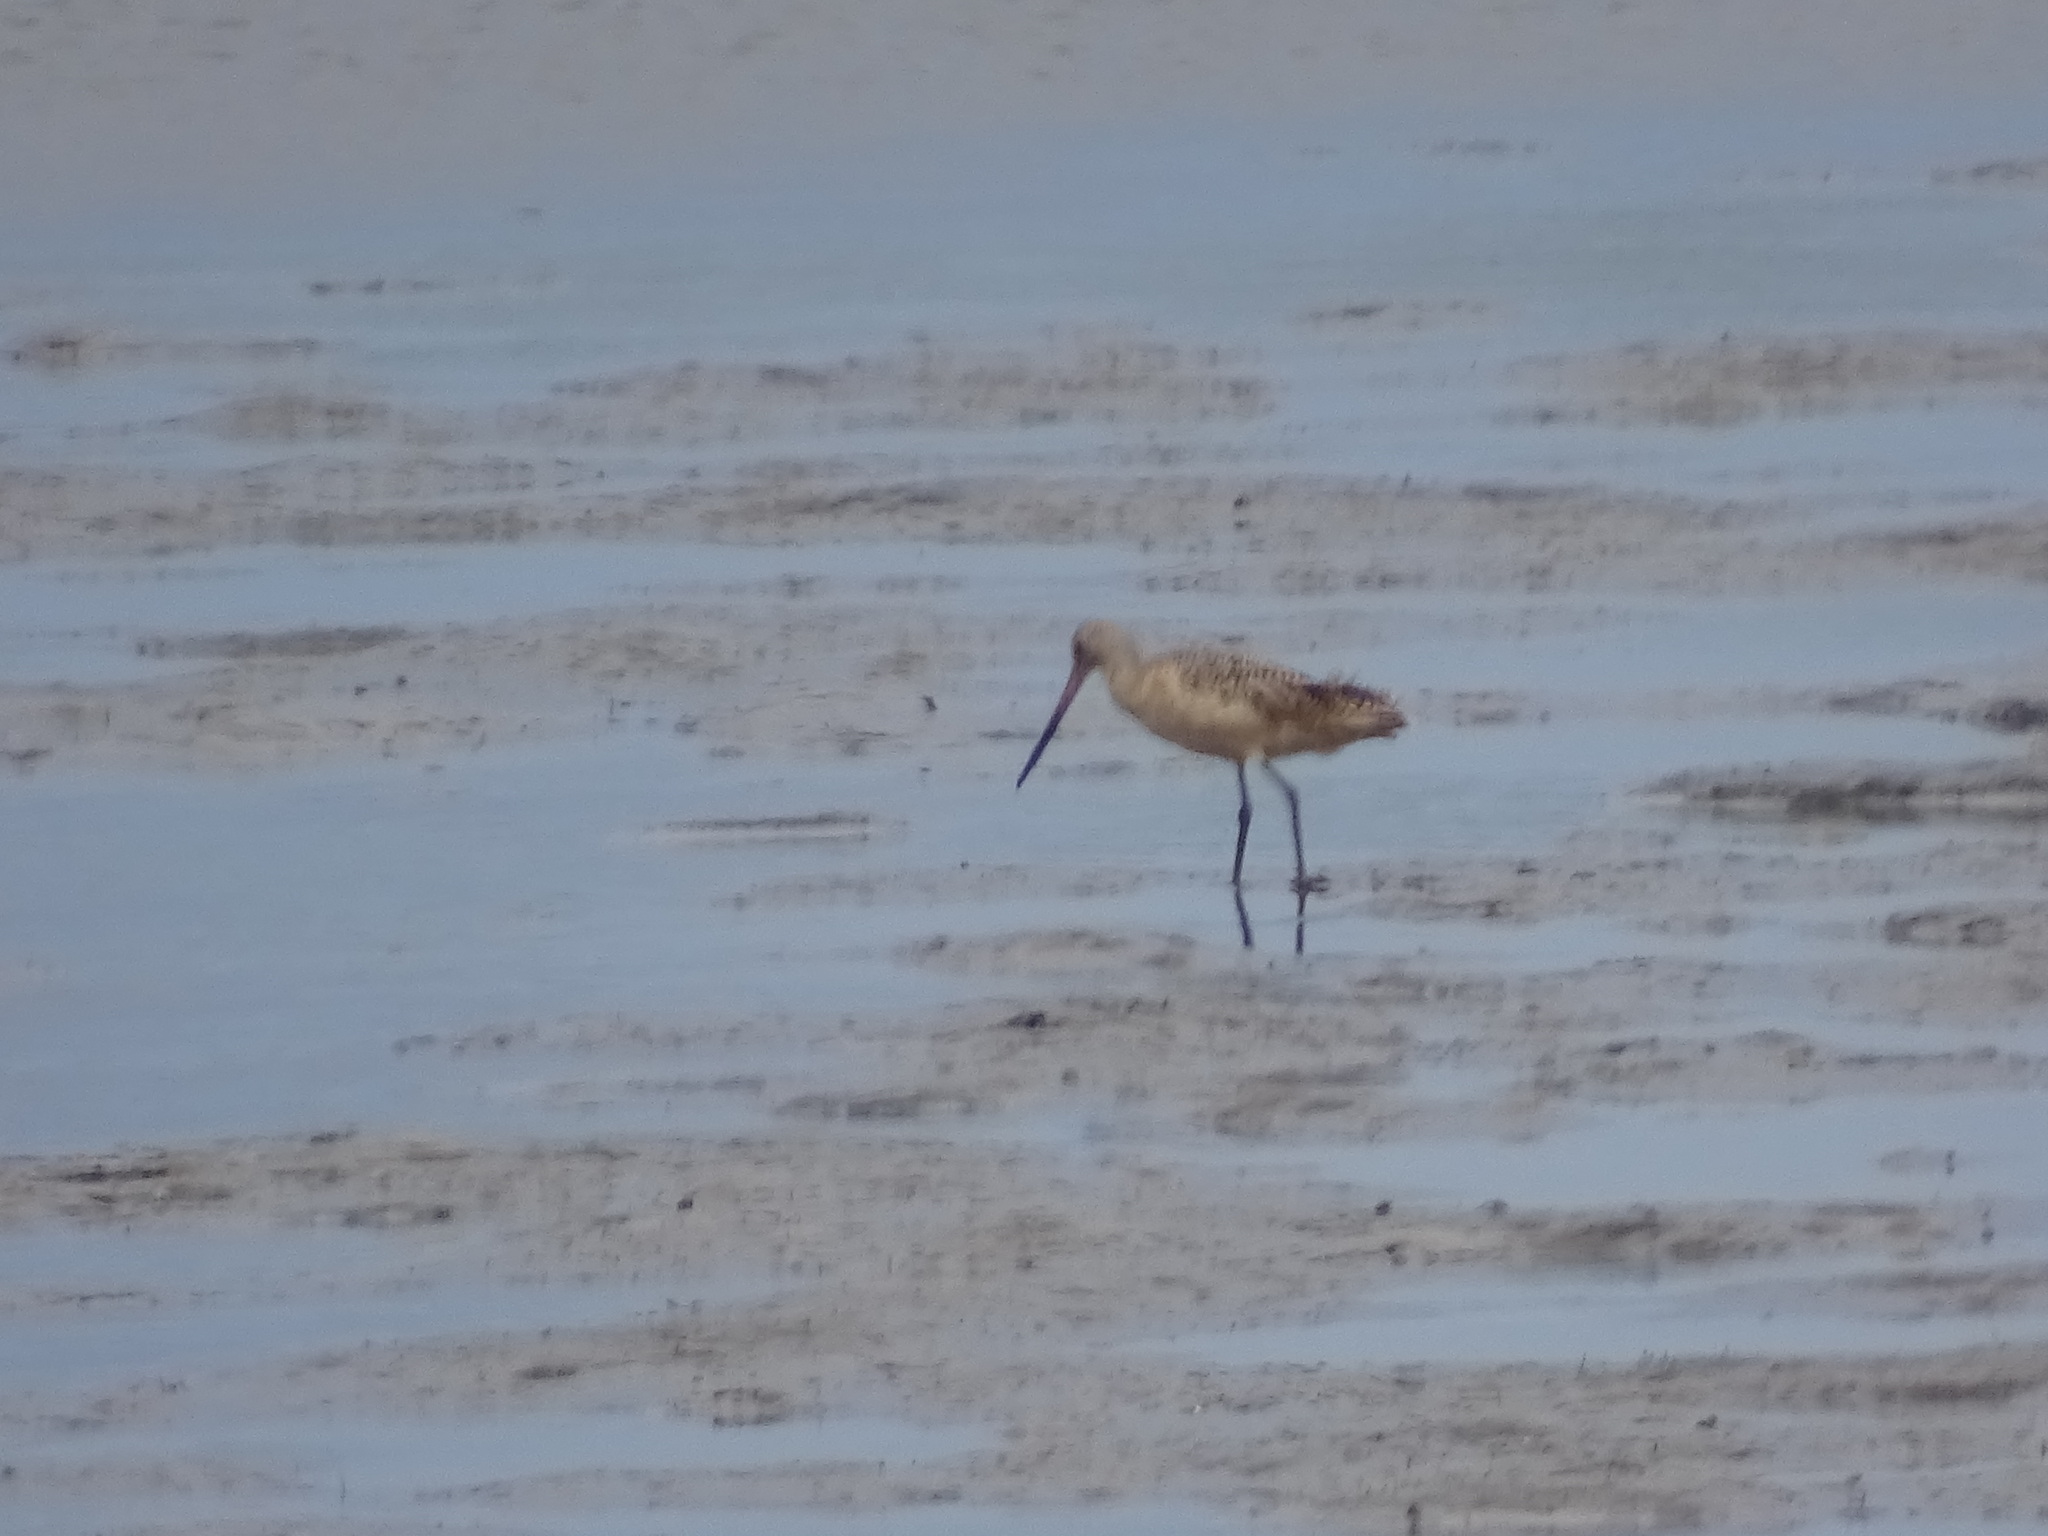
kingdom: Animalia
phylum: Chordata
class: Aves
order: Charadriiformes
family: Scolopacidae
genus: Limosa
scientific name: Limosa fedoa
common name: Marbled godwit
